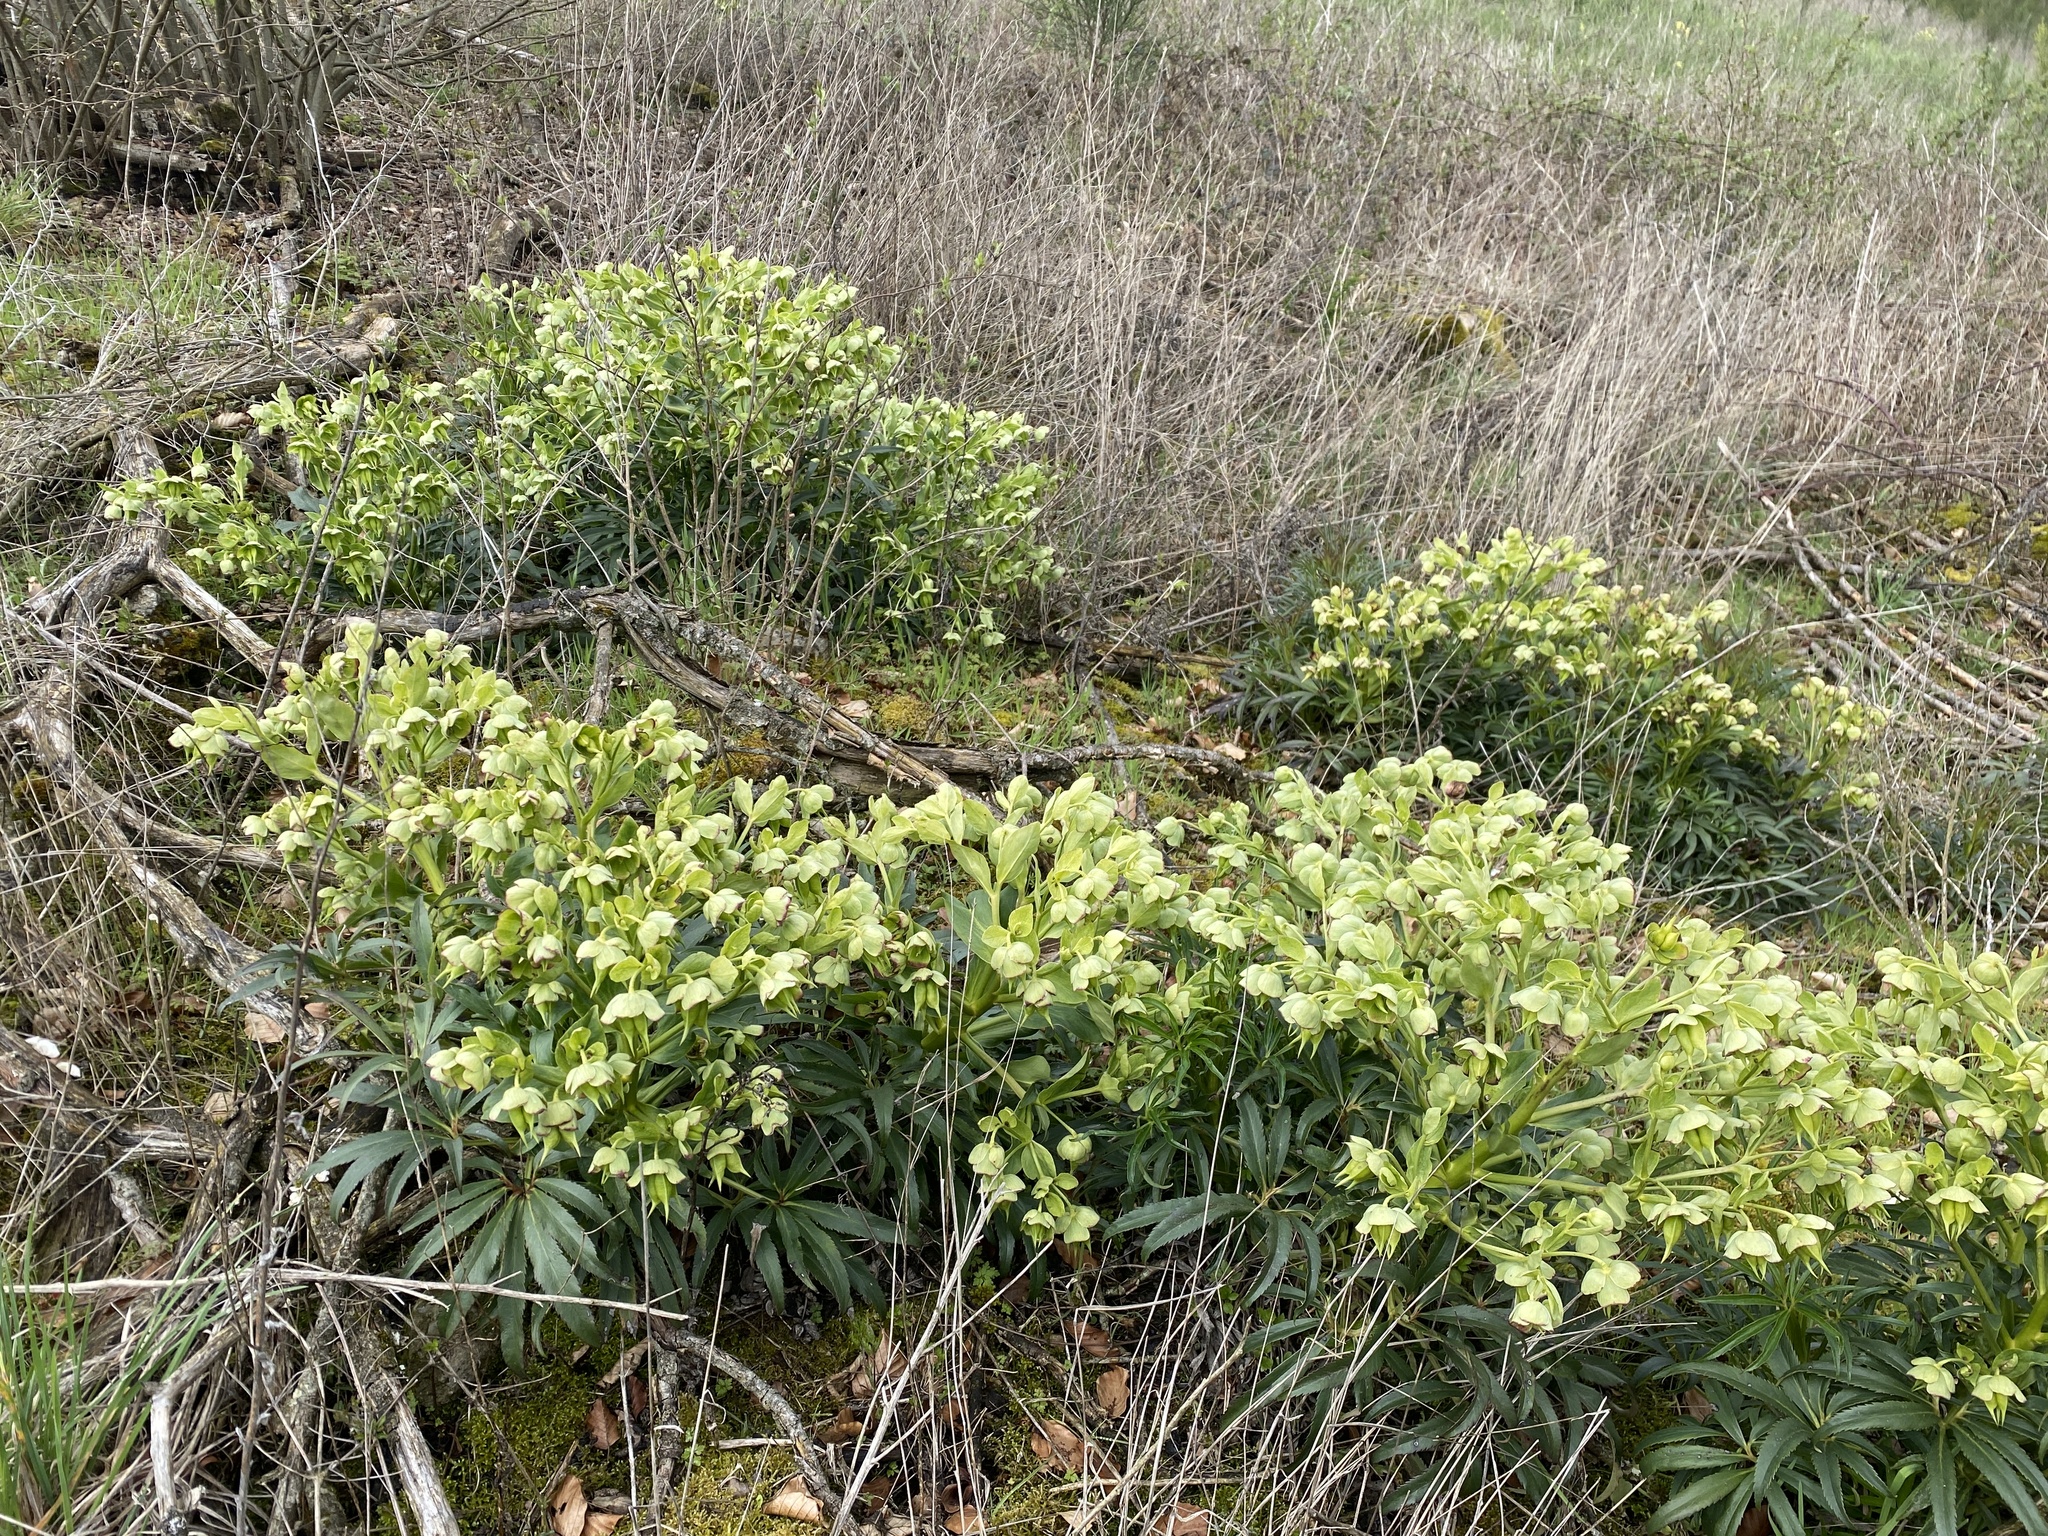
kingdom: Plantae
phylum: Tracheophyta
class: Magnoliopsida
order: Ranunculales
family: Ranunculaceae
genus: Helleborus
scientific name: Helleborus foetidus
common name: Stinking hellebore
